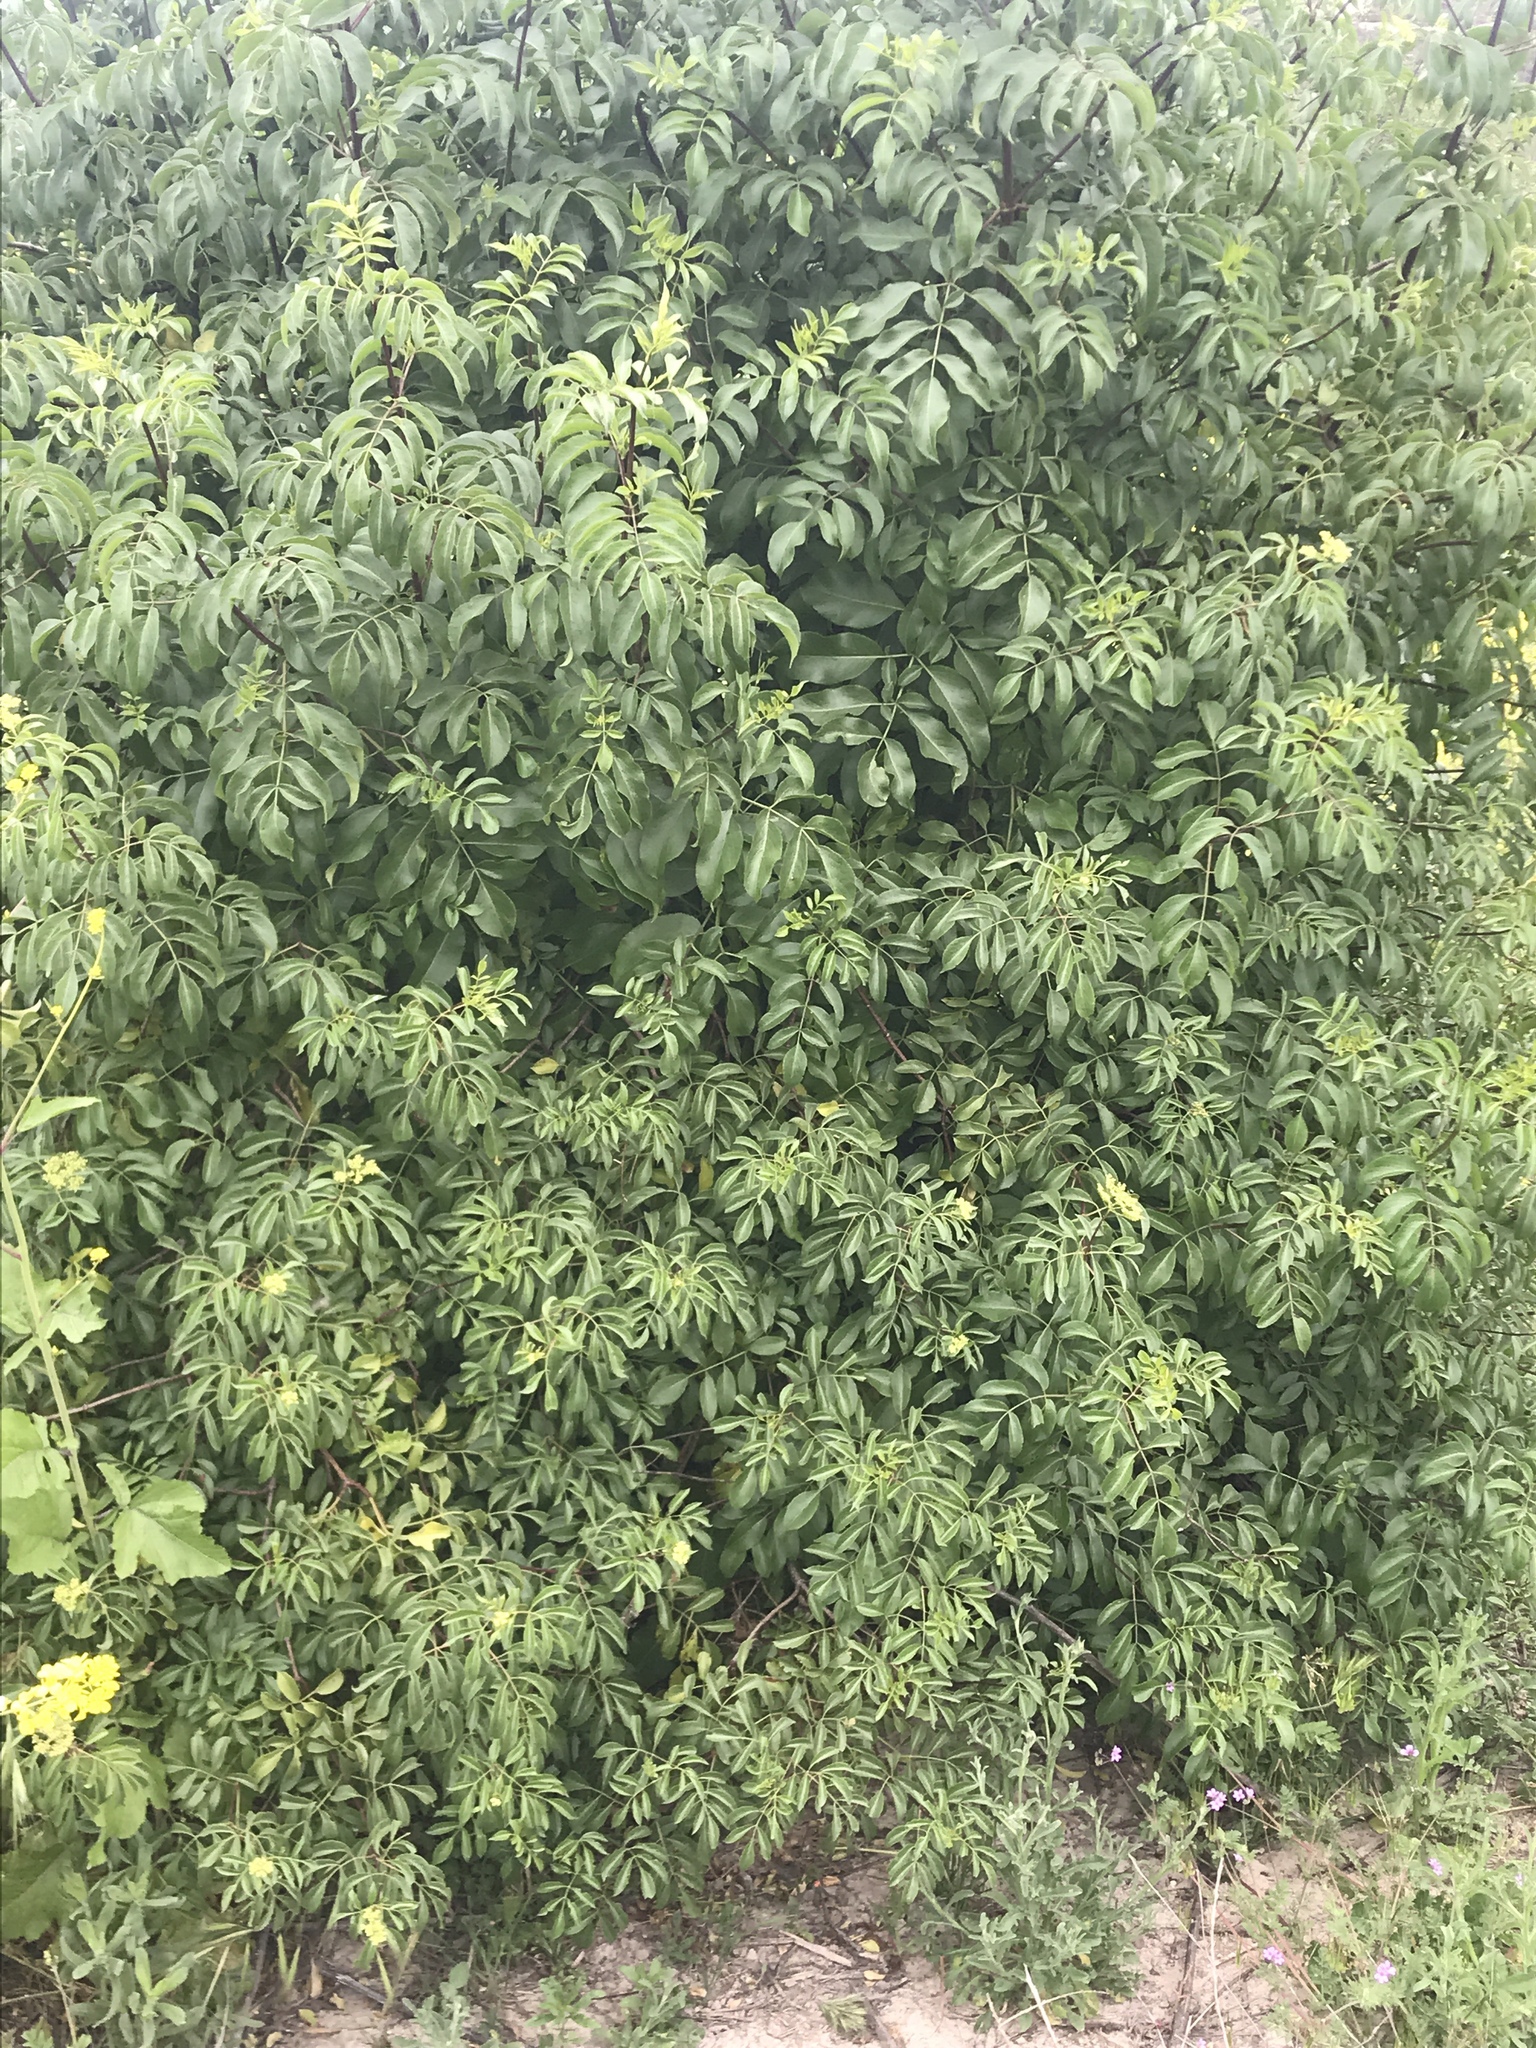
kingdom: Plantae
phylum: Tracheophyta
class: Magnoliopsida
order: Dipsacales
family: Viburnaceae
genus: Sambucus
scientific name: Sambucus cerulea
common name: Blue elder
